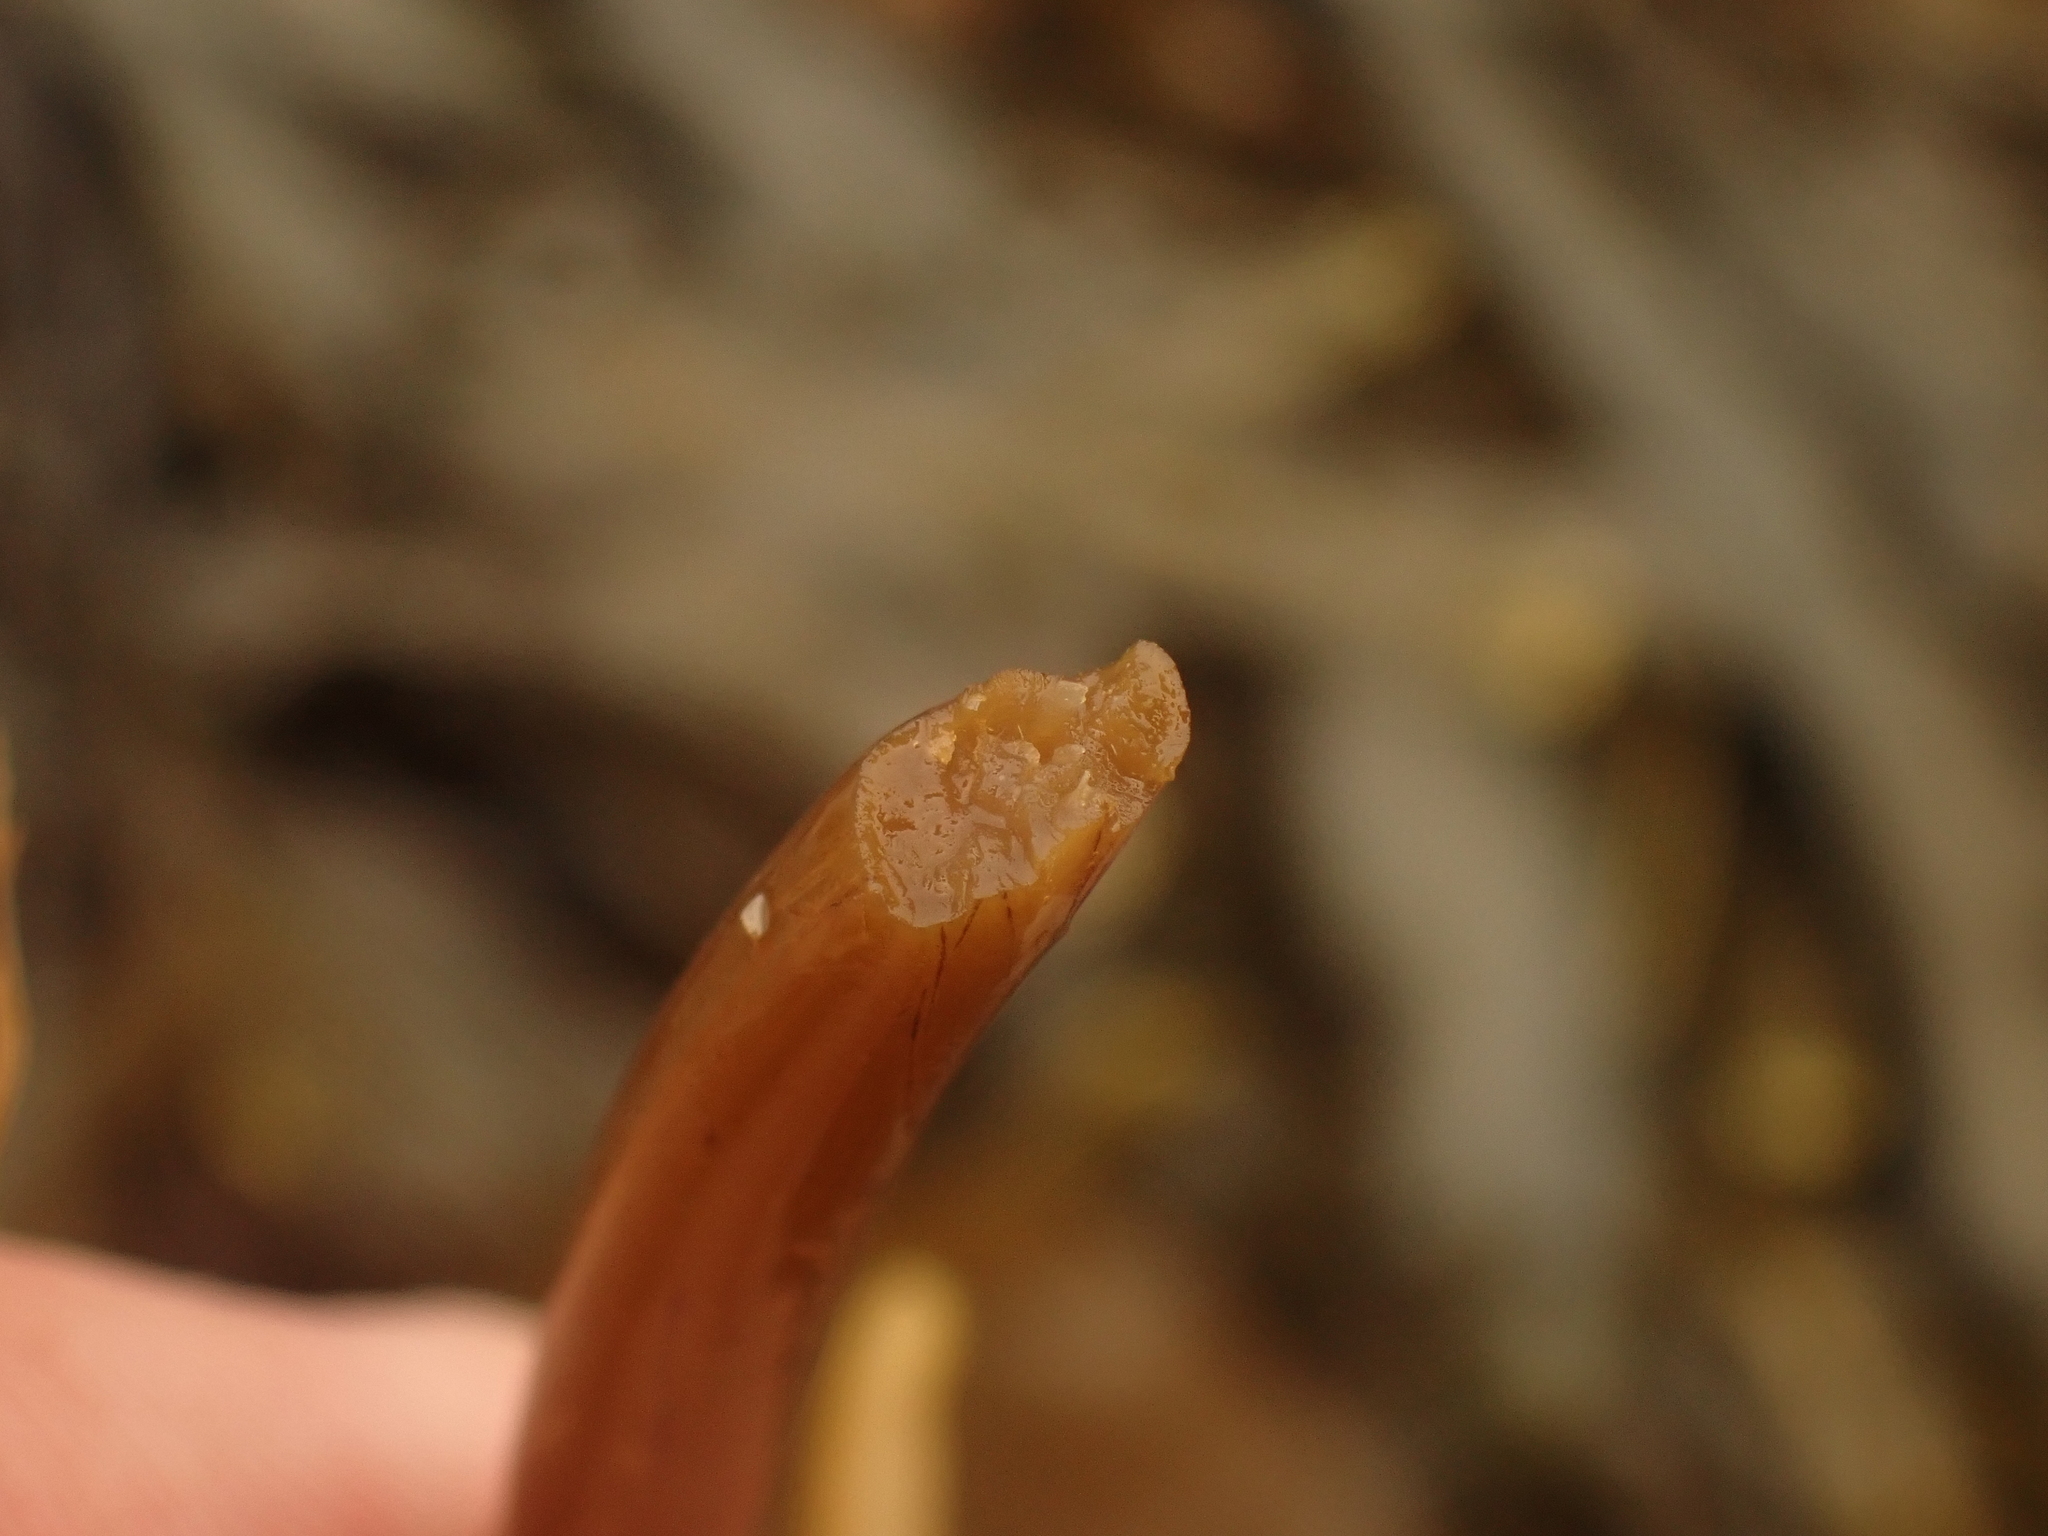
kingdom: Chromista
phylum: Ochrophyta
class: Phaeophyceae
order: Laminariales
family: Laminariaceae
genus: Saccharina
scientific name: Saccharina latissima
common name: Poor man's weather glass
